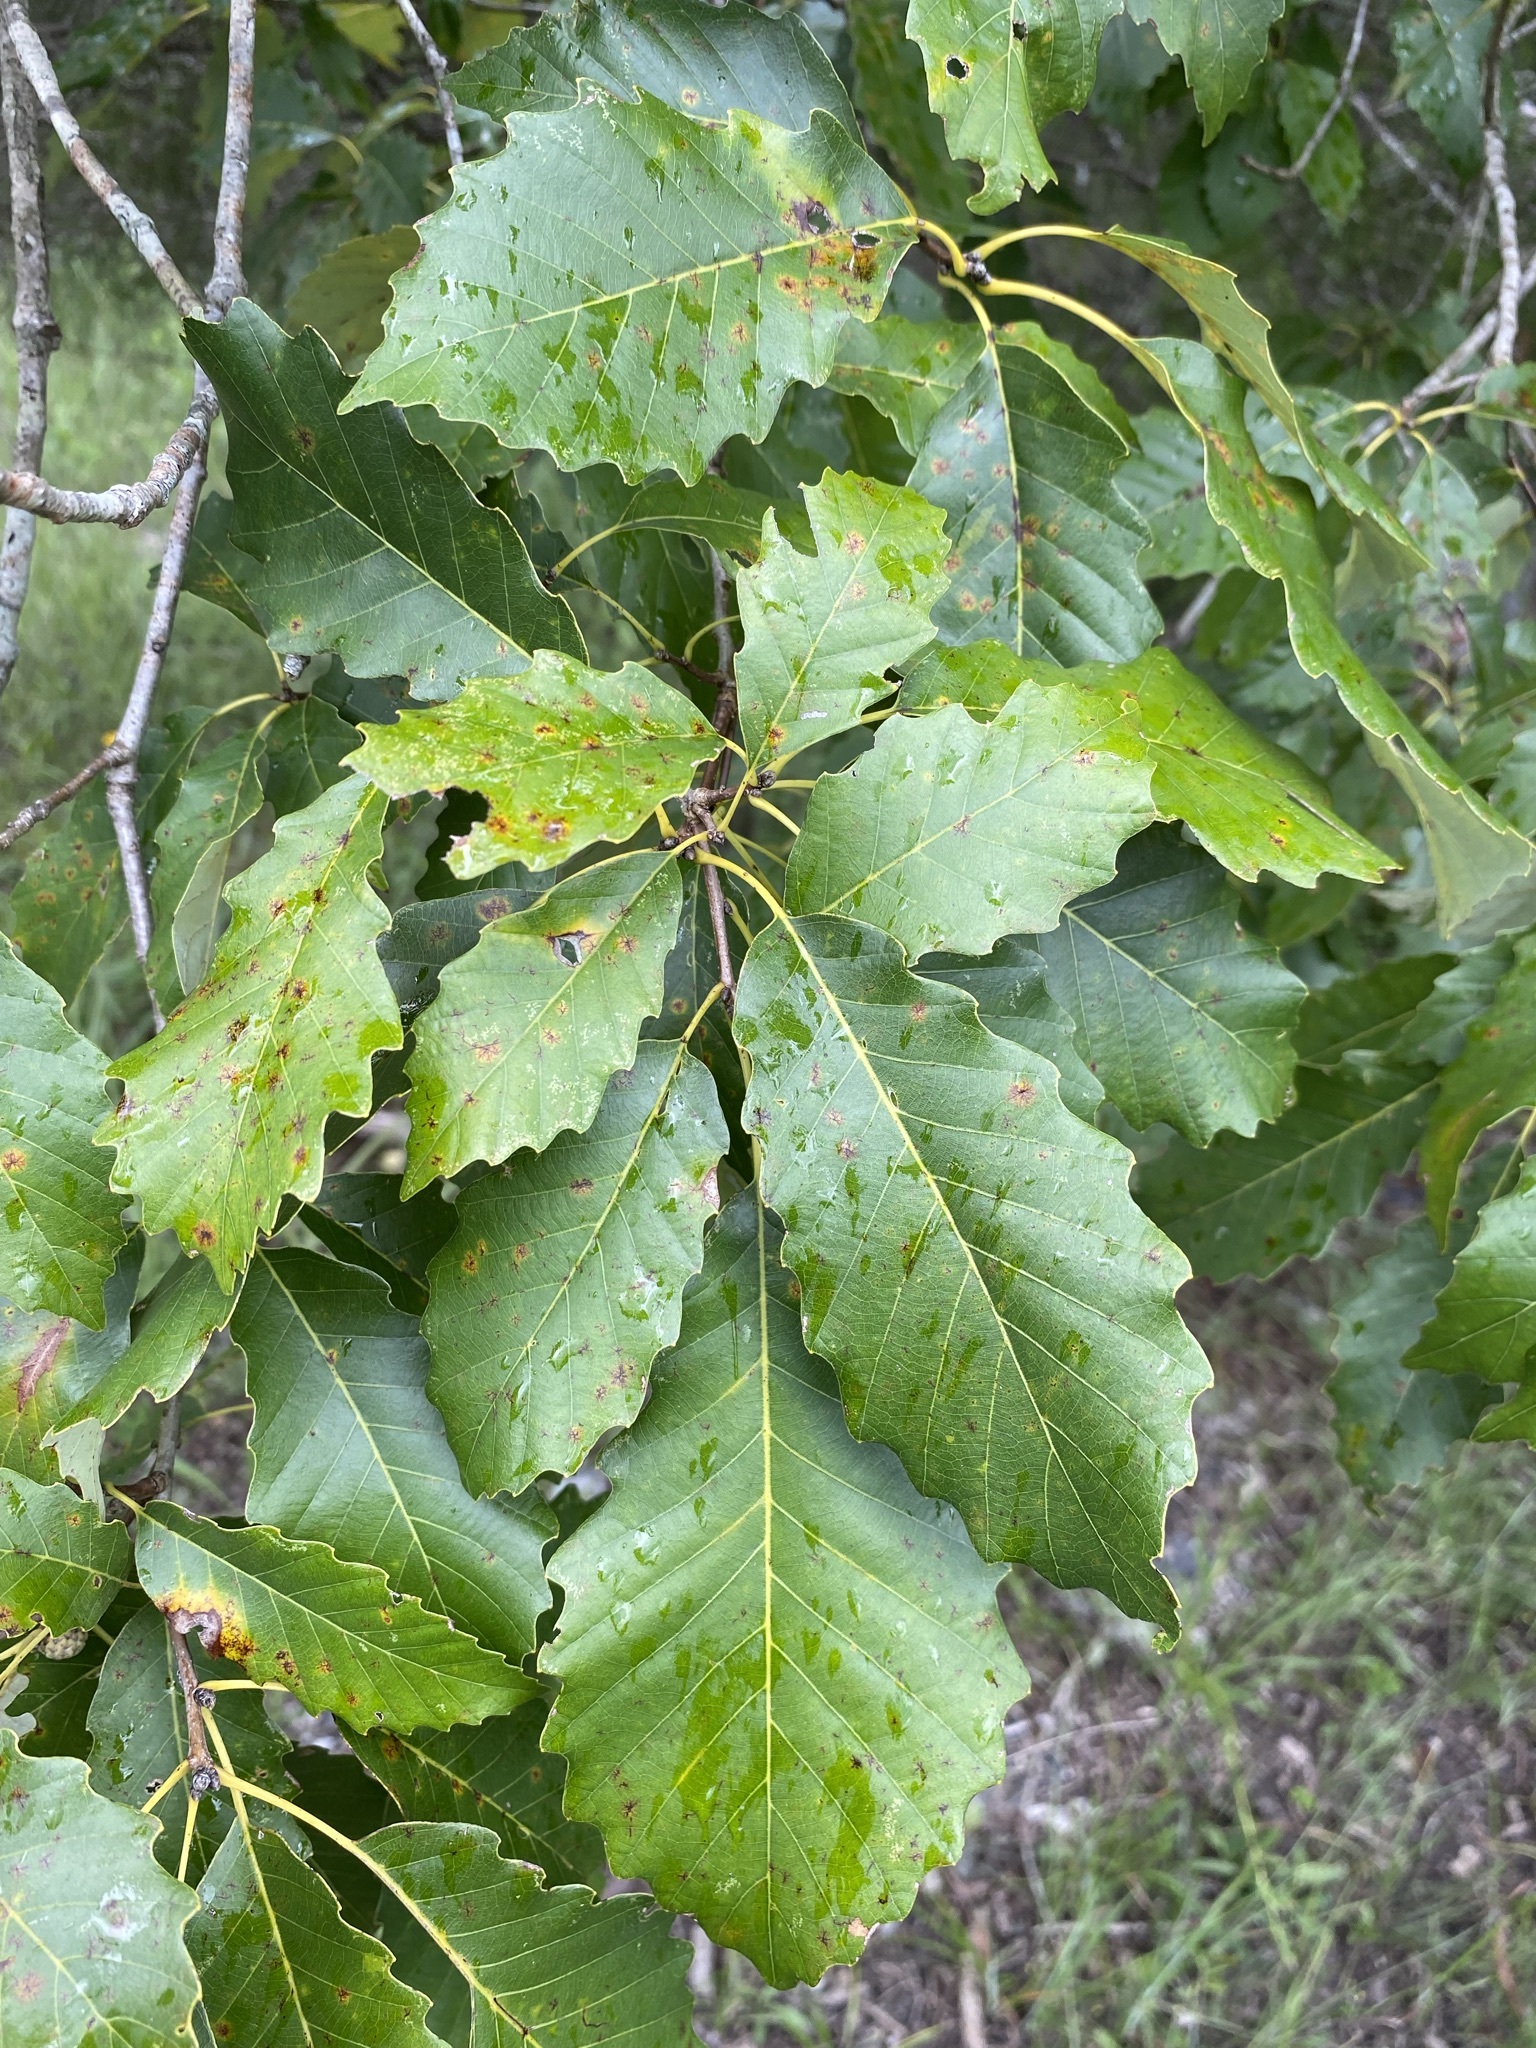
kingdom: Plantae
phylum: Tracheophyta
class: Magnoliopsida
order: Fagales
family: Fagaceae
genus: Quercus
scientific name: Quercus muehlenbergii
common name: Chinkapin oak
